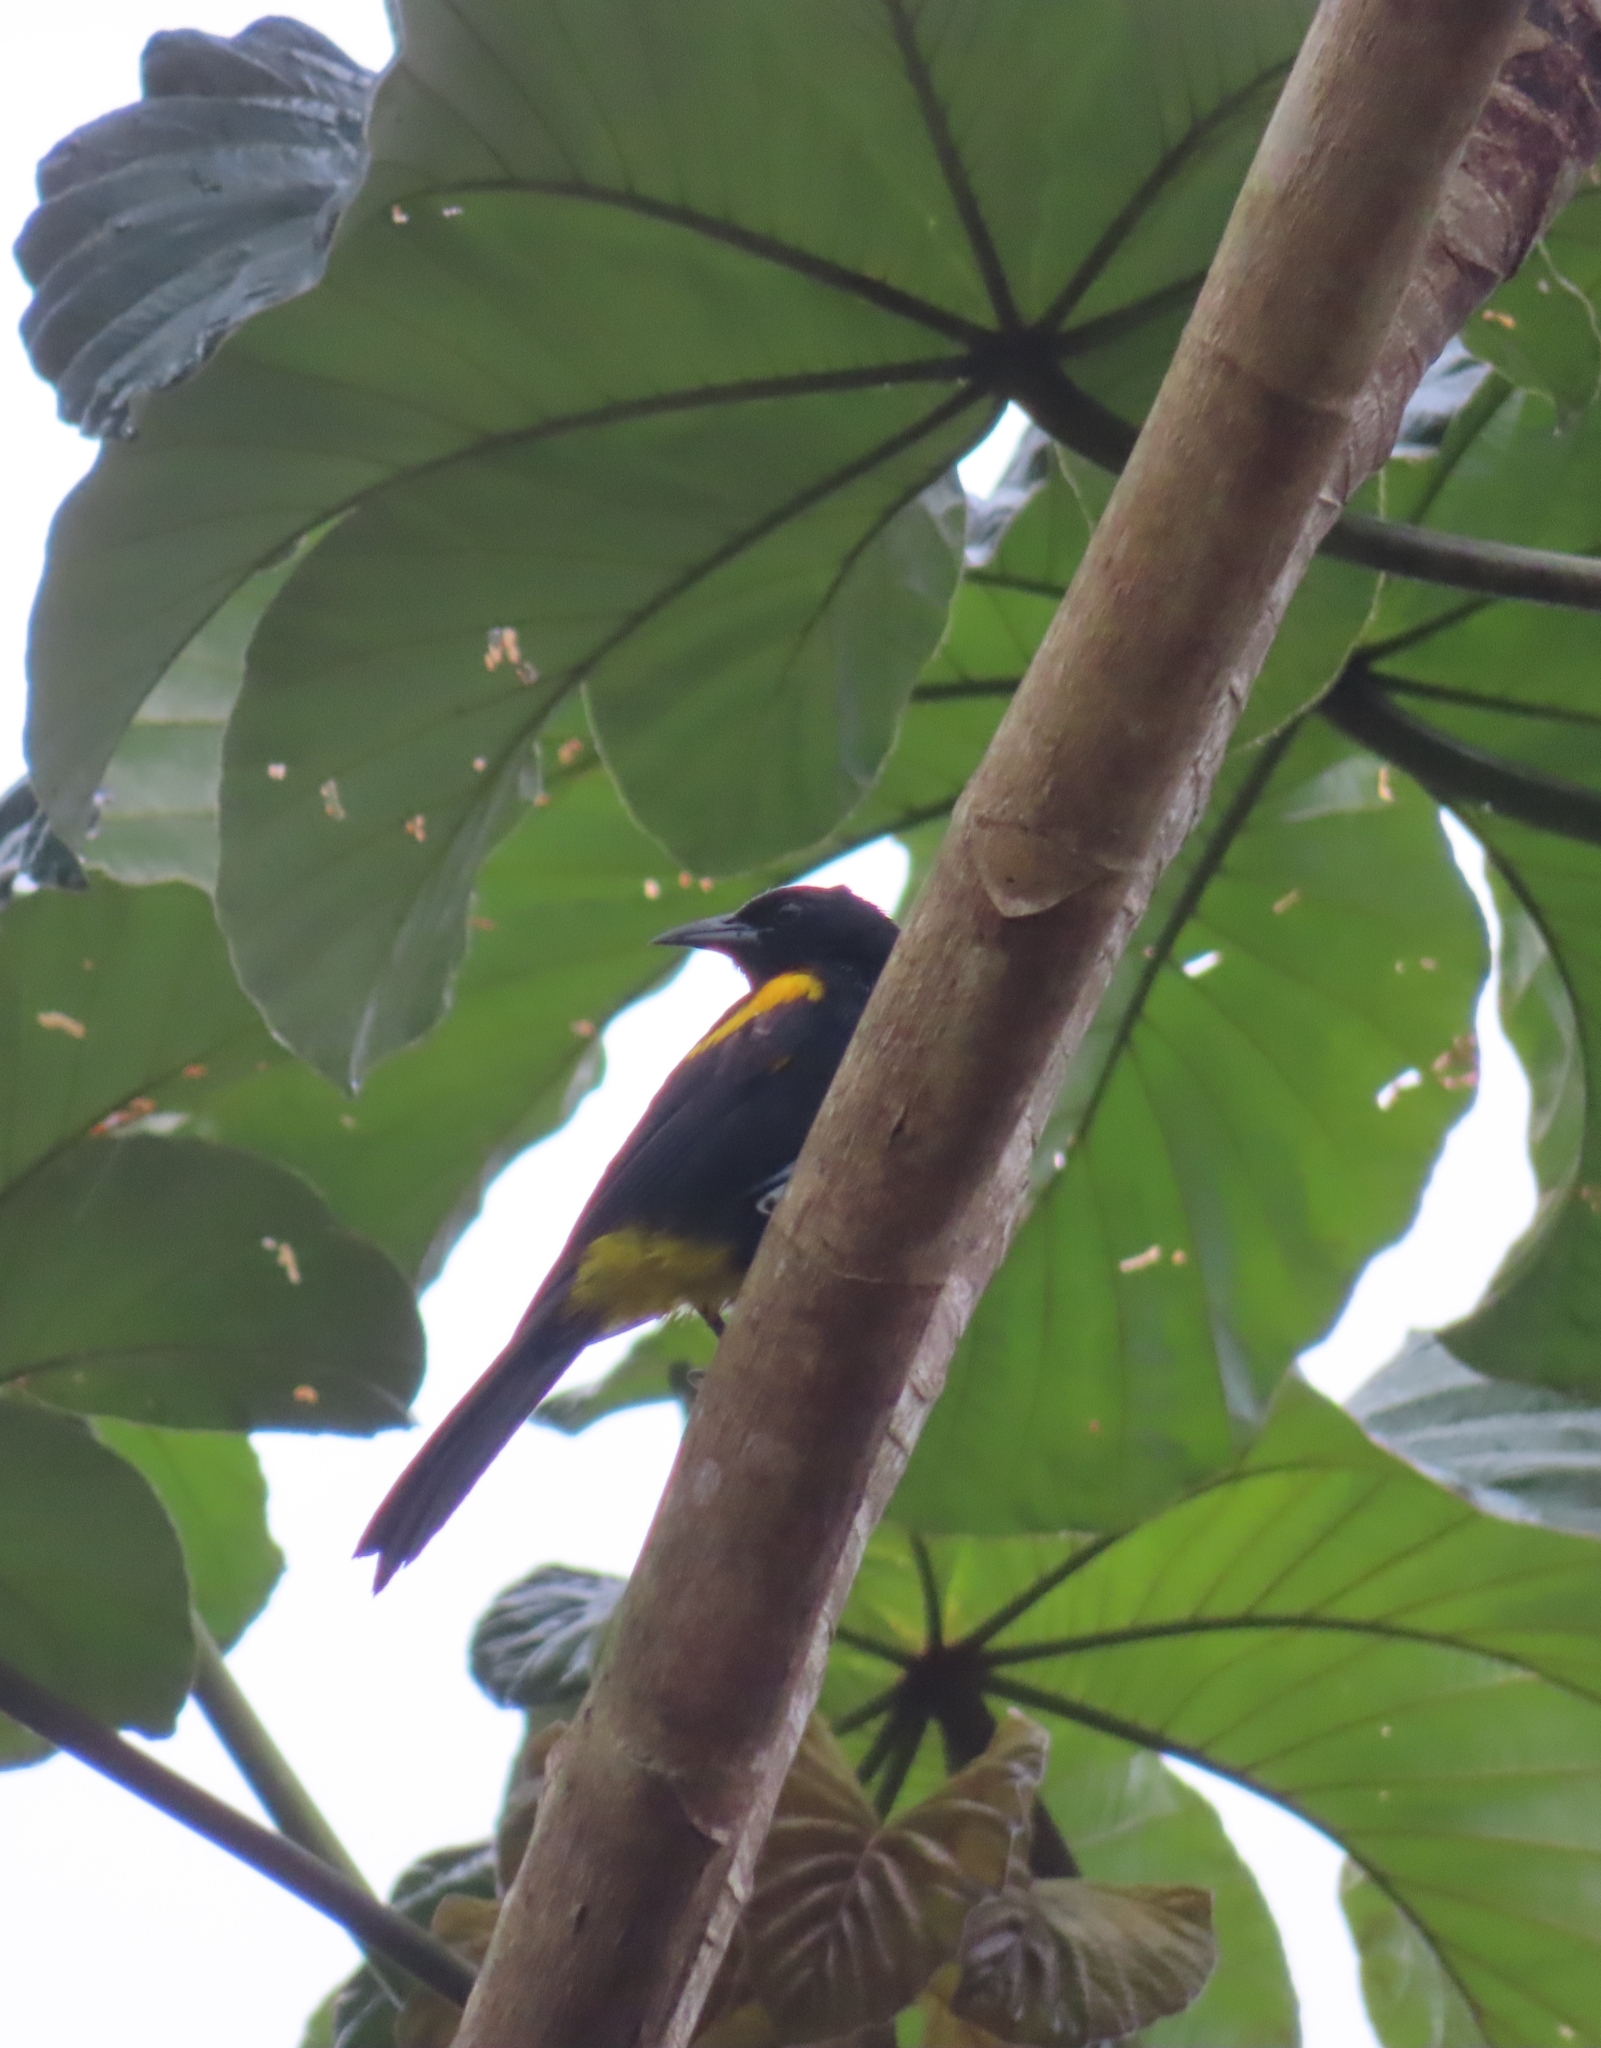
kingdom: Animalia
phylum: Chordata
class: Aves
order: Passeriformes
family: Icteridae
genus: Icterus
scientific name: Icterus portoricensis
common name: Puerto rican oriole
